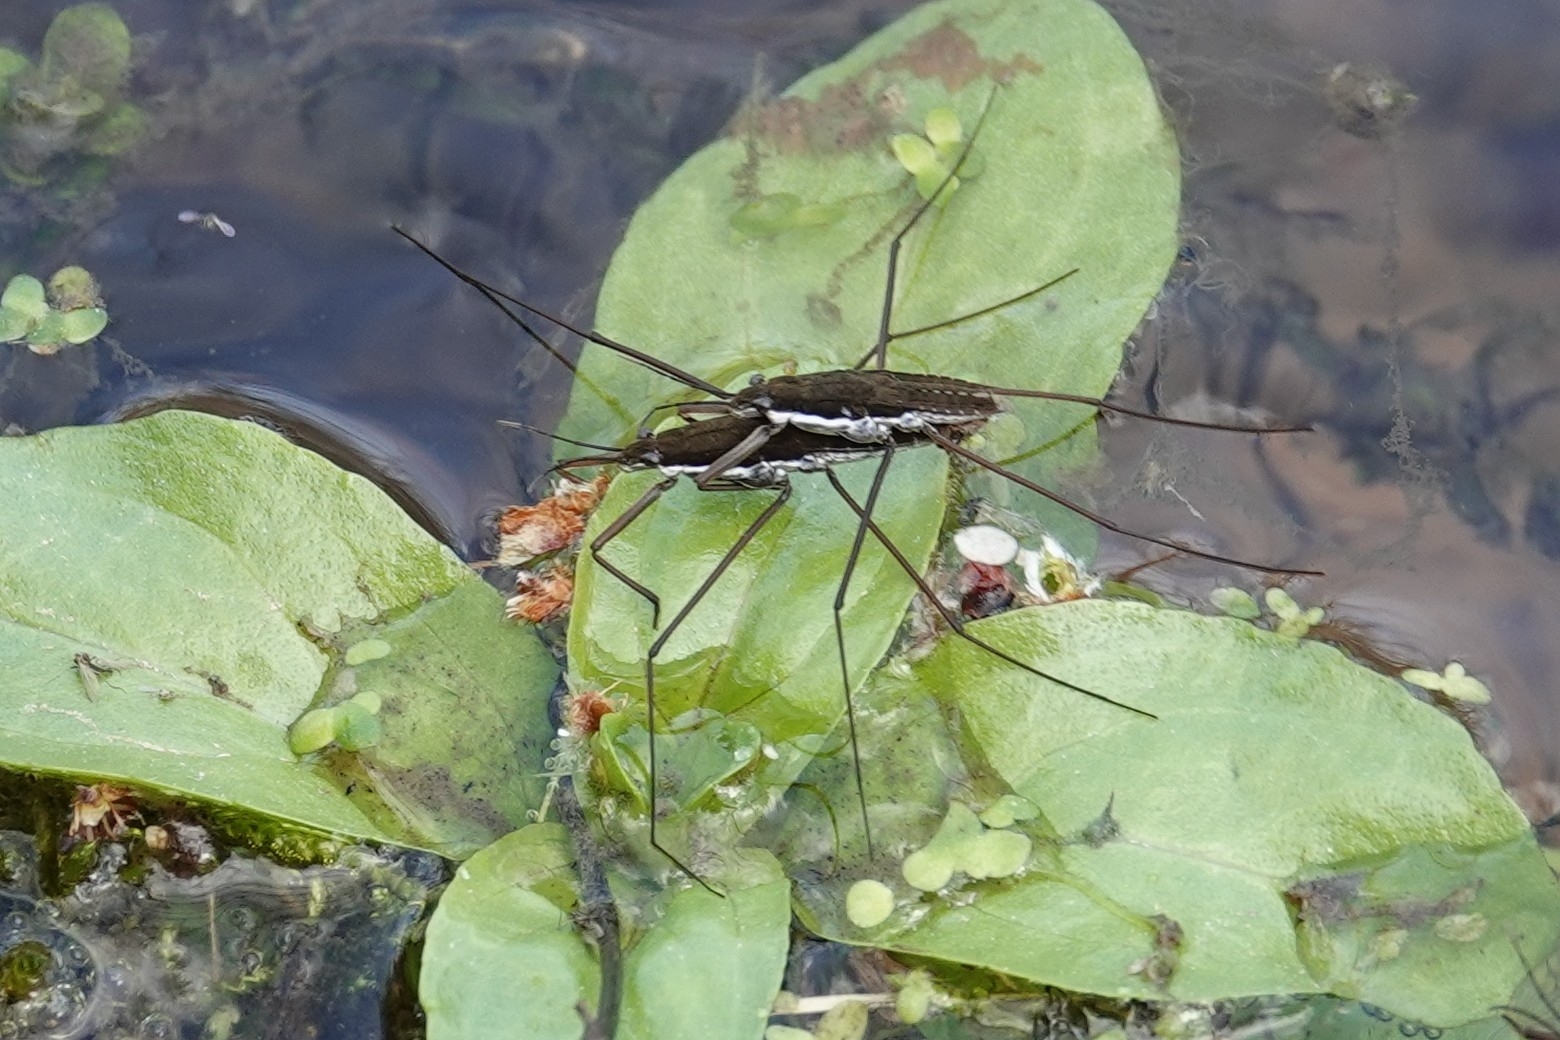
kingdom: Animalia
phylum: Arthropoda
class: Insecta
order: Hemiptera
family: Gerridae
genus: Aquarius
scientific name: Aquarius remigis
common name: Common water strider
